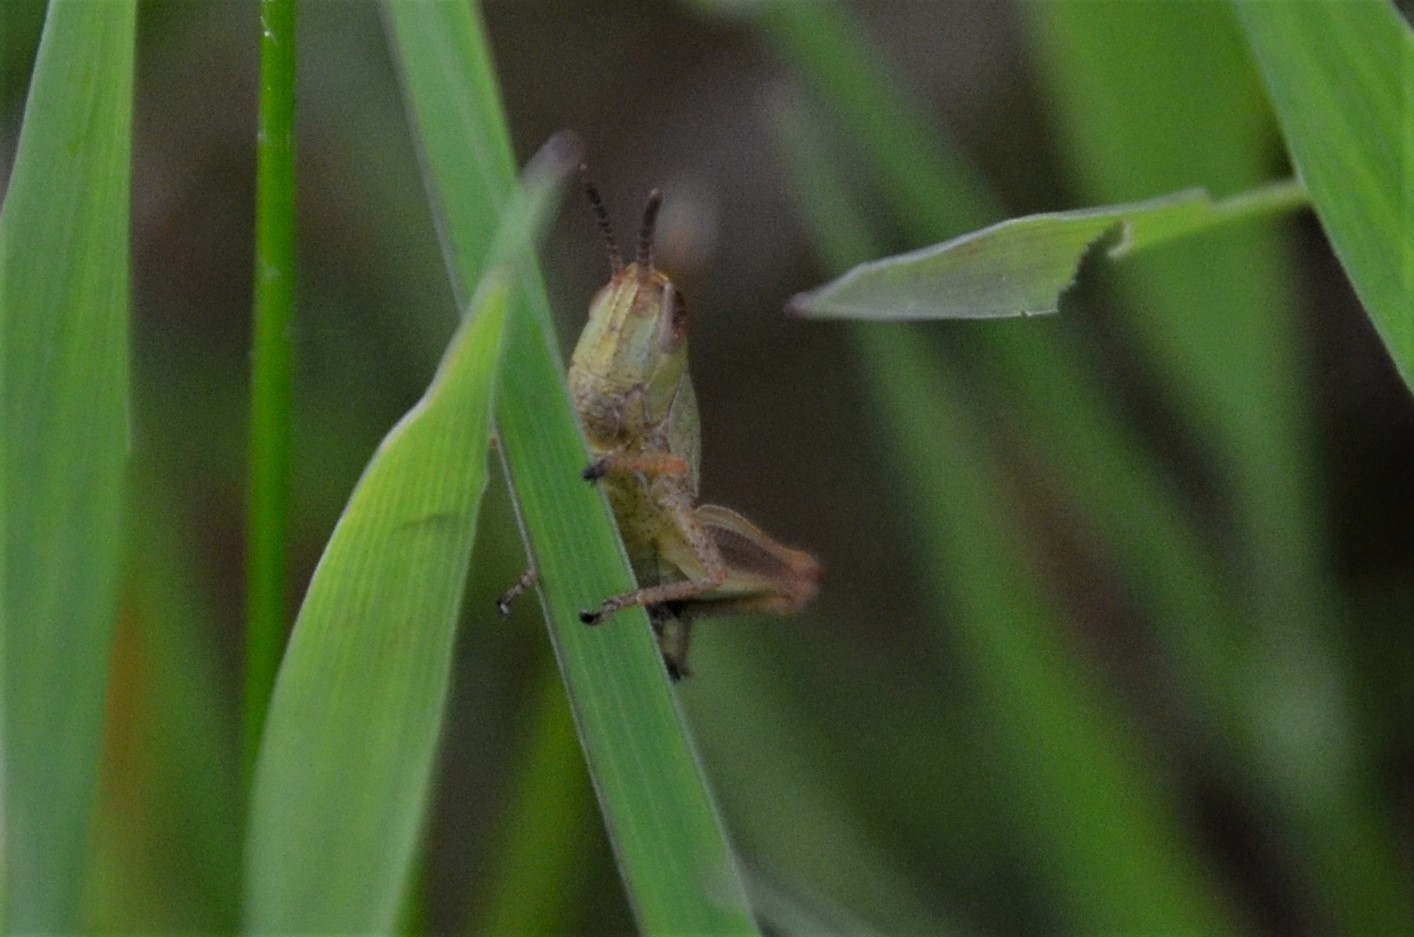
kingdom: Animalia
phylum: Arthropoda
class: Insecta
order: Orthoptera
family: Acrididae
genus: Pseudochorthippus
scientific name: Pseudochorthippus parallelus
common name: Meadow grasshopper
